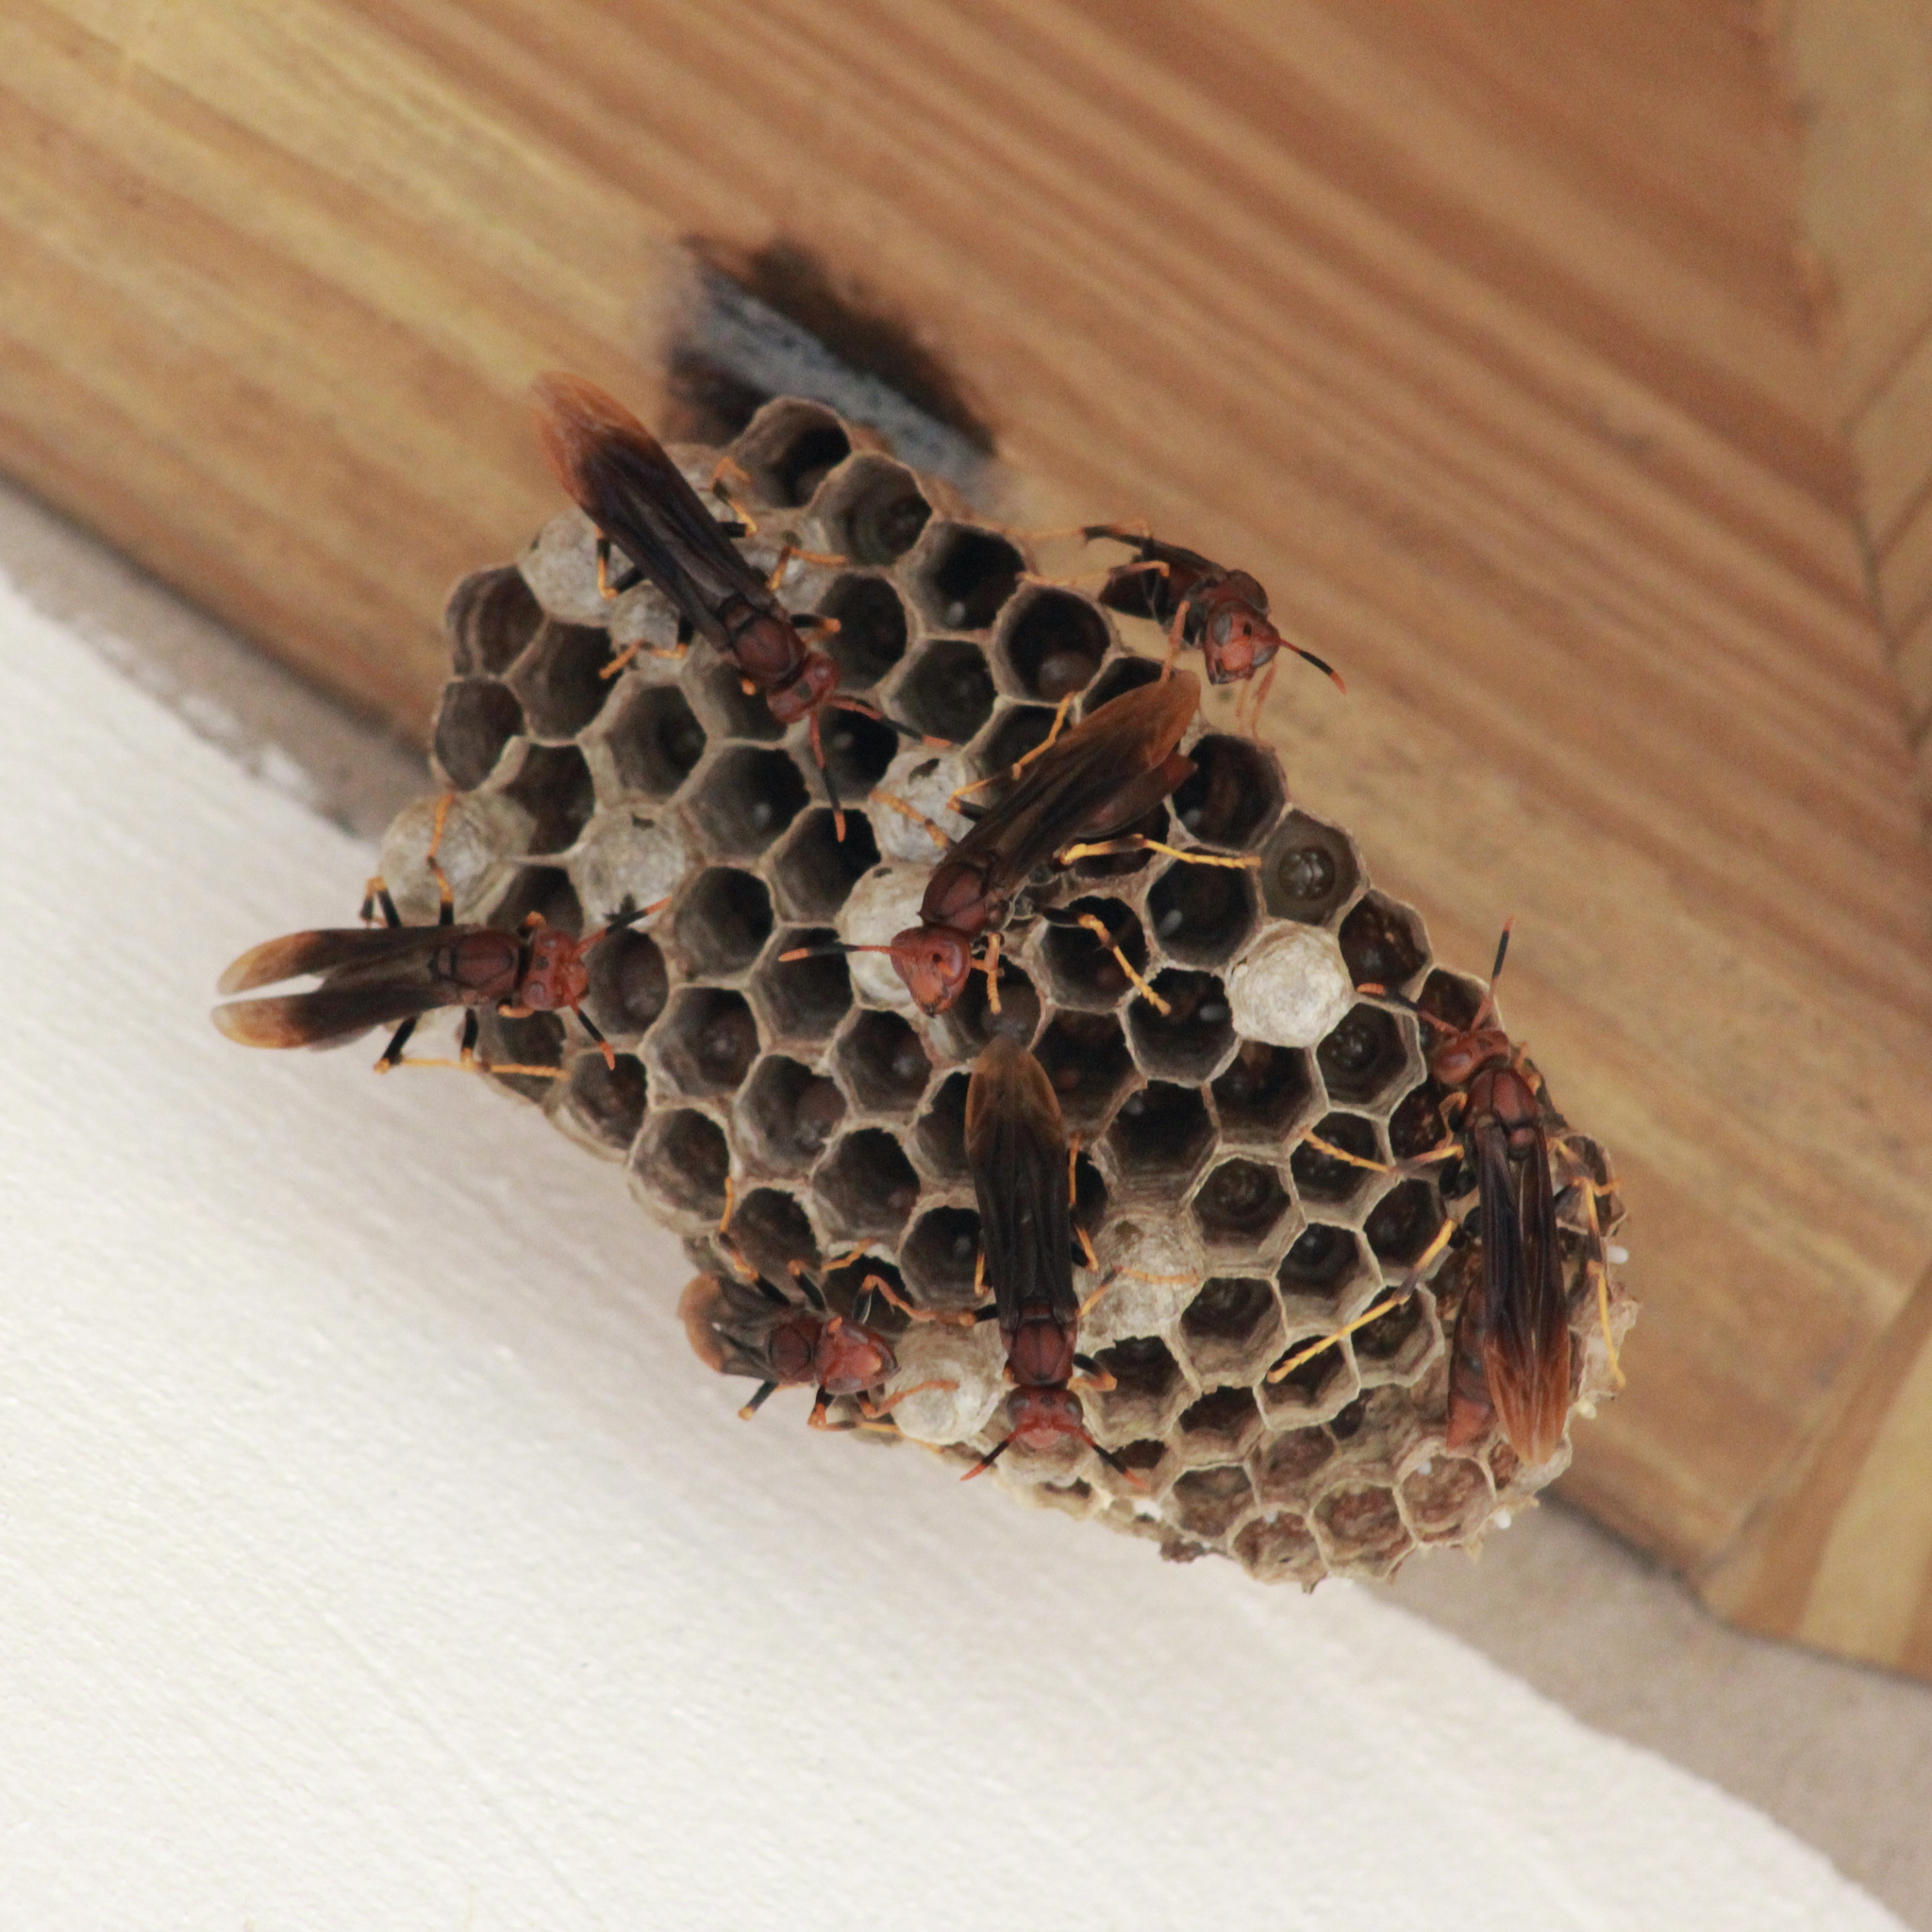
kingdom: Animalia
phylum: Arthropoda
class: Insecta
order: Hymenoptera
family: Eumenidae
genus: Polistes
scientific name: Polistes lanio
